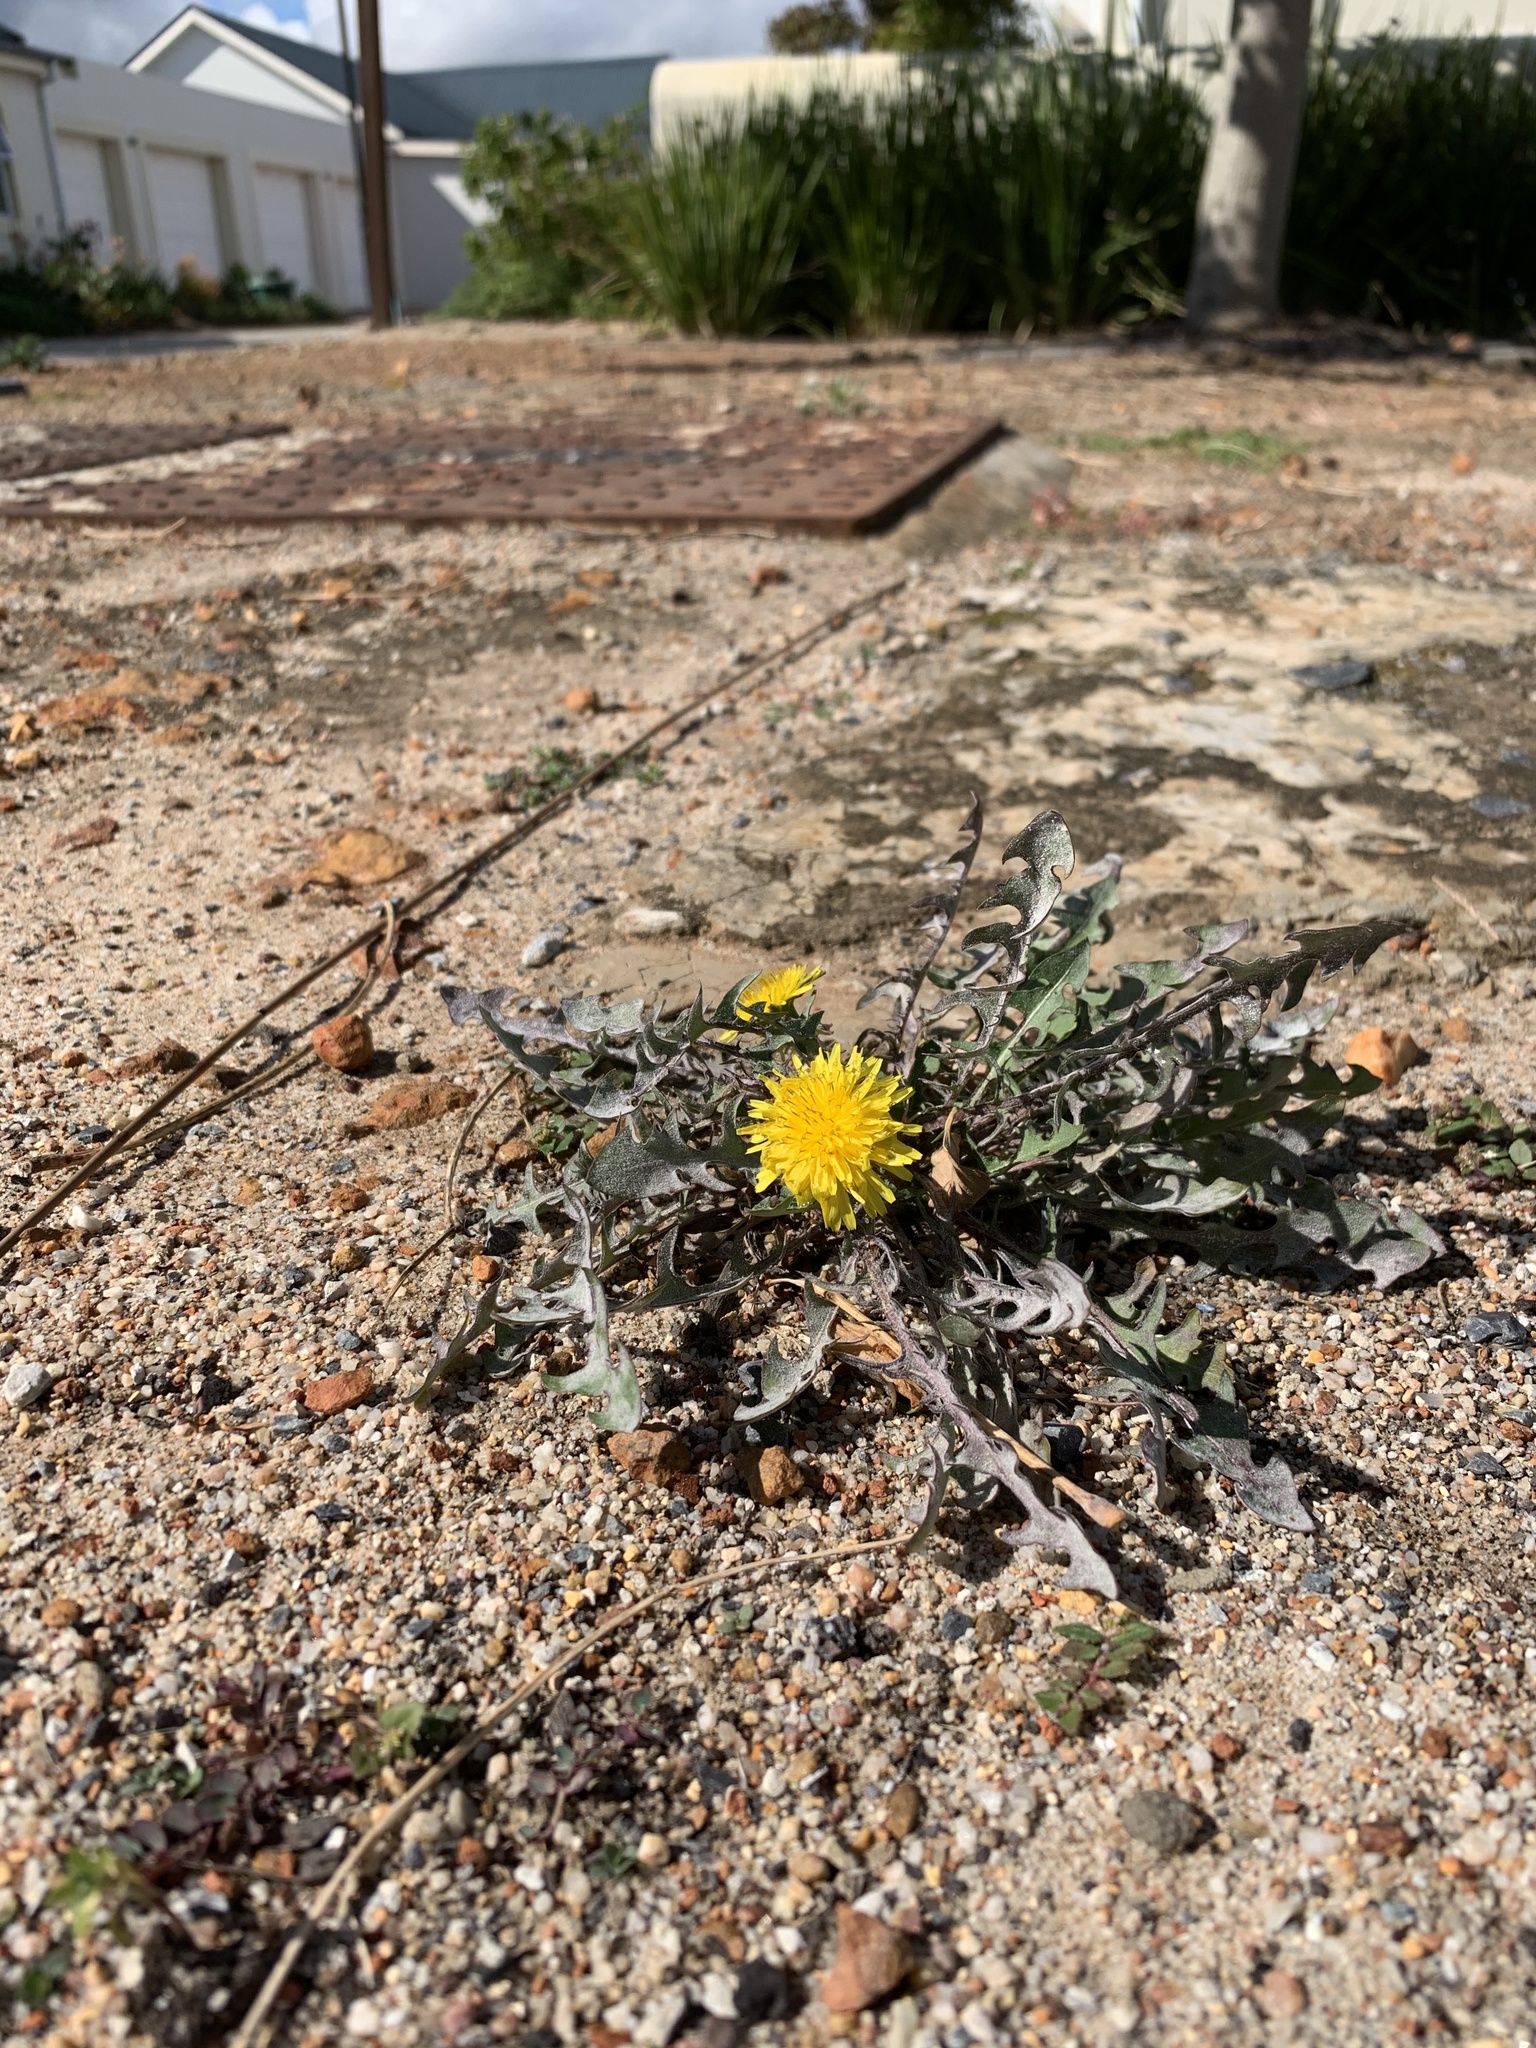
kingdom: Plantae
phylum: Tracheophyta
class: Magnoliopsida
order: Asterales
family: Asteraceae
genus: Taraxacum
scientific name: Taraxacum officinale
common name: Common dandelion
